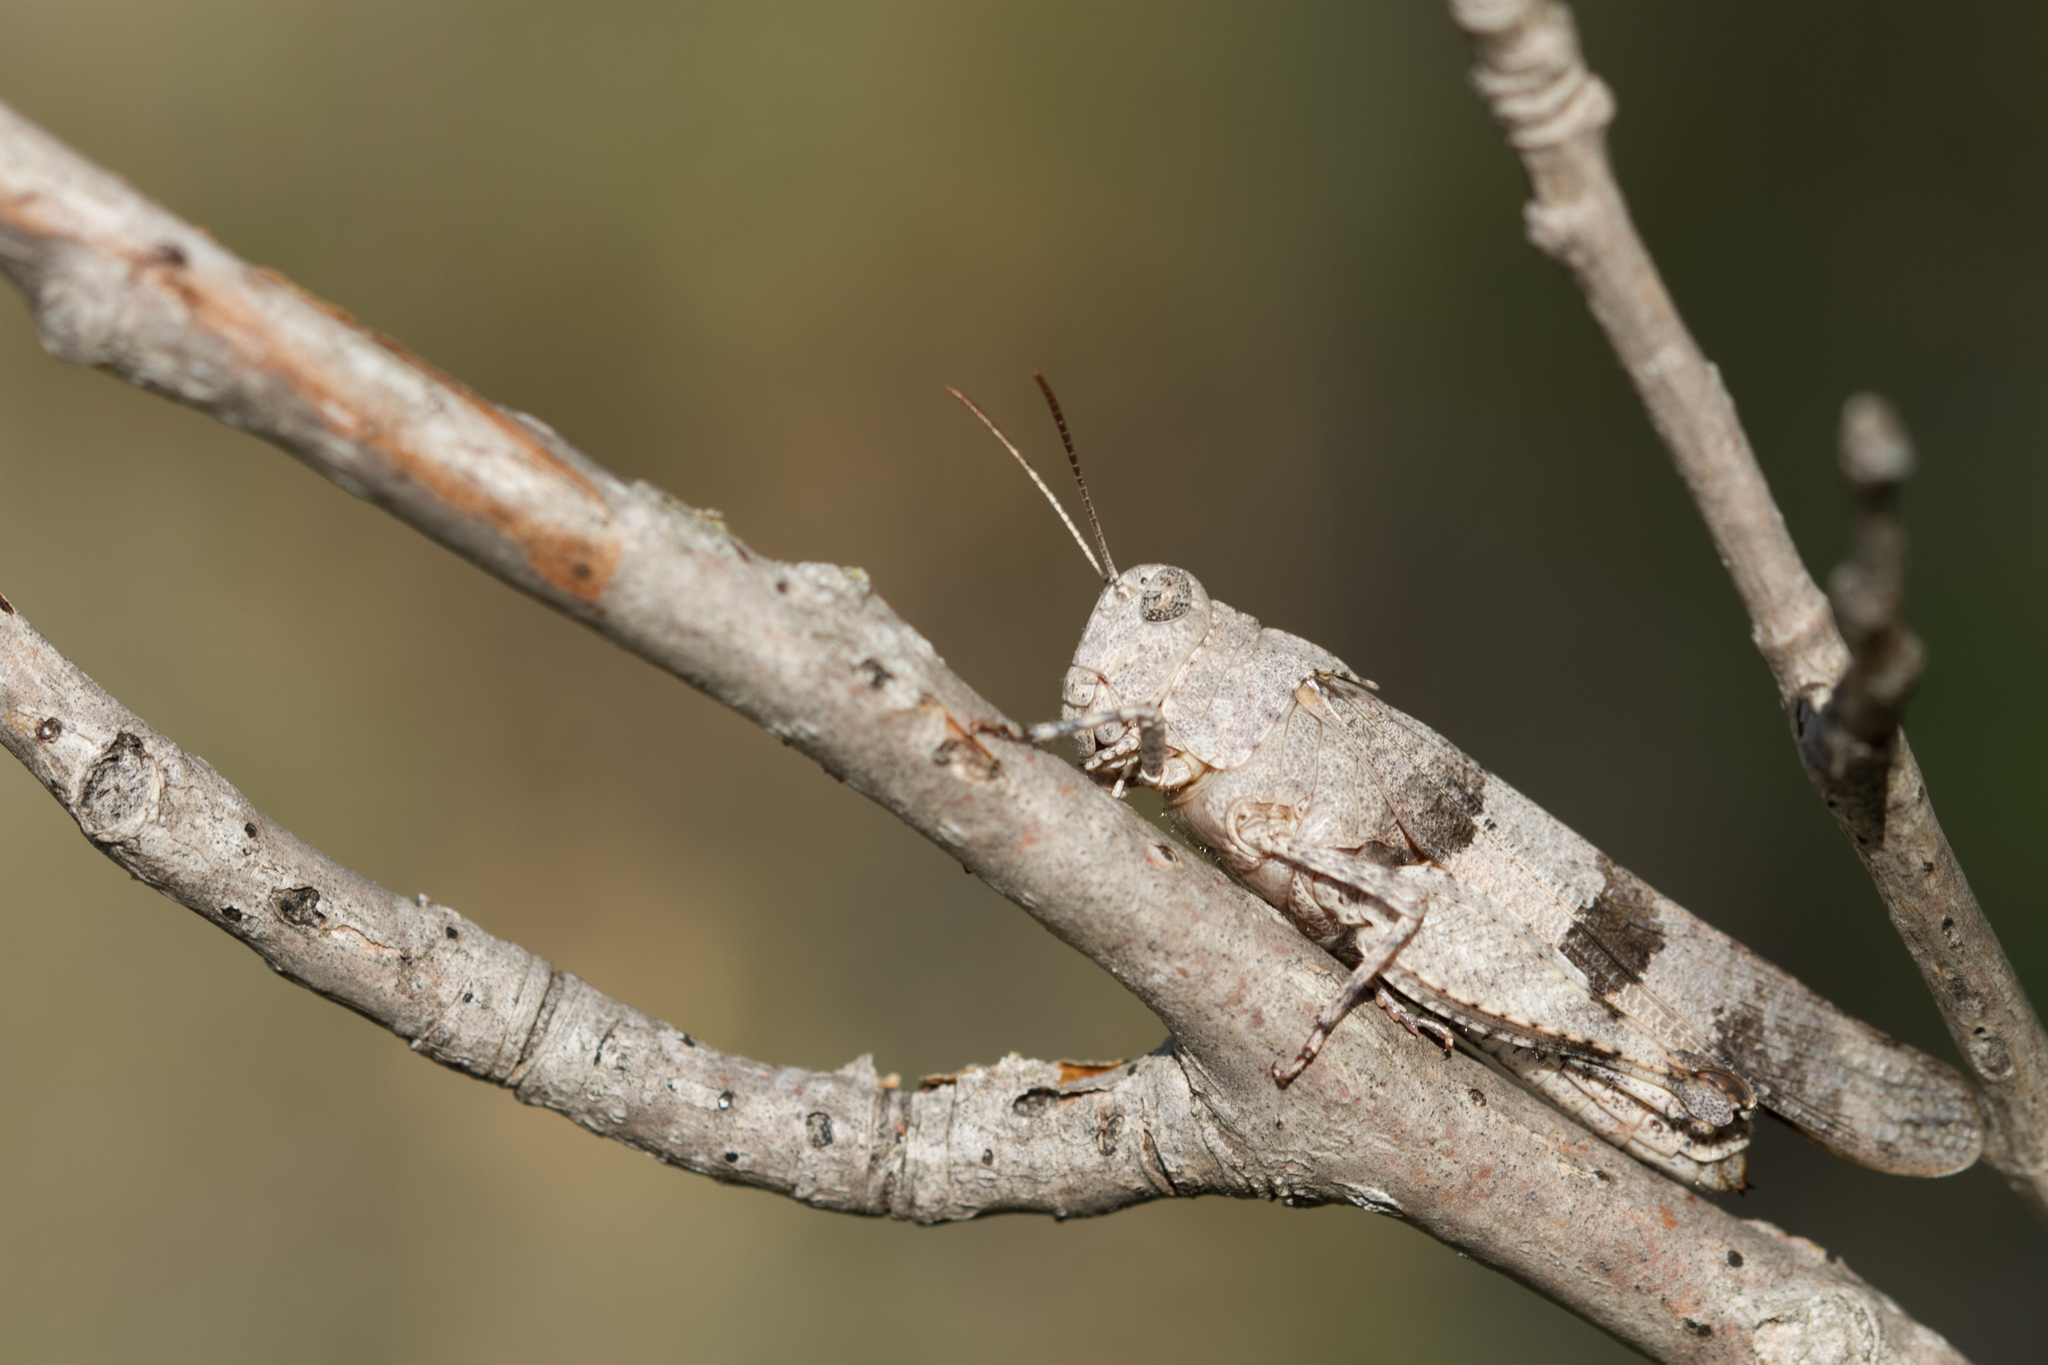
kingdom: Animalia
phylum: Arthropoda
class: Insecta
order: Orthoptera
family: Acrididae
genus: Oedipoda
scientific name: Oedipoda caerulescens
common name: Blue-winged grasshopper
